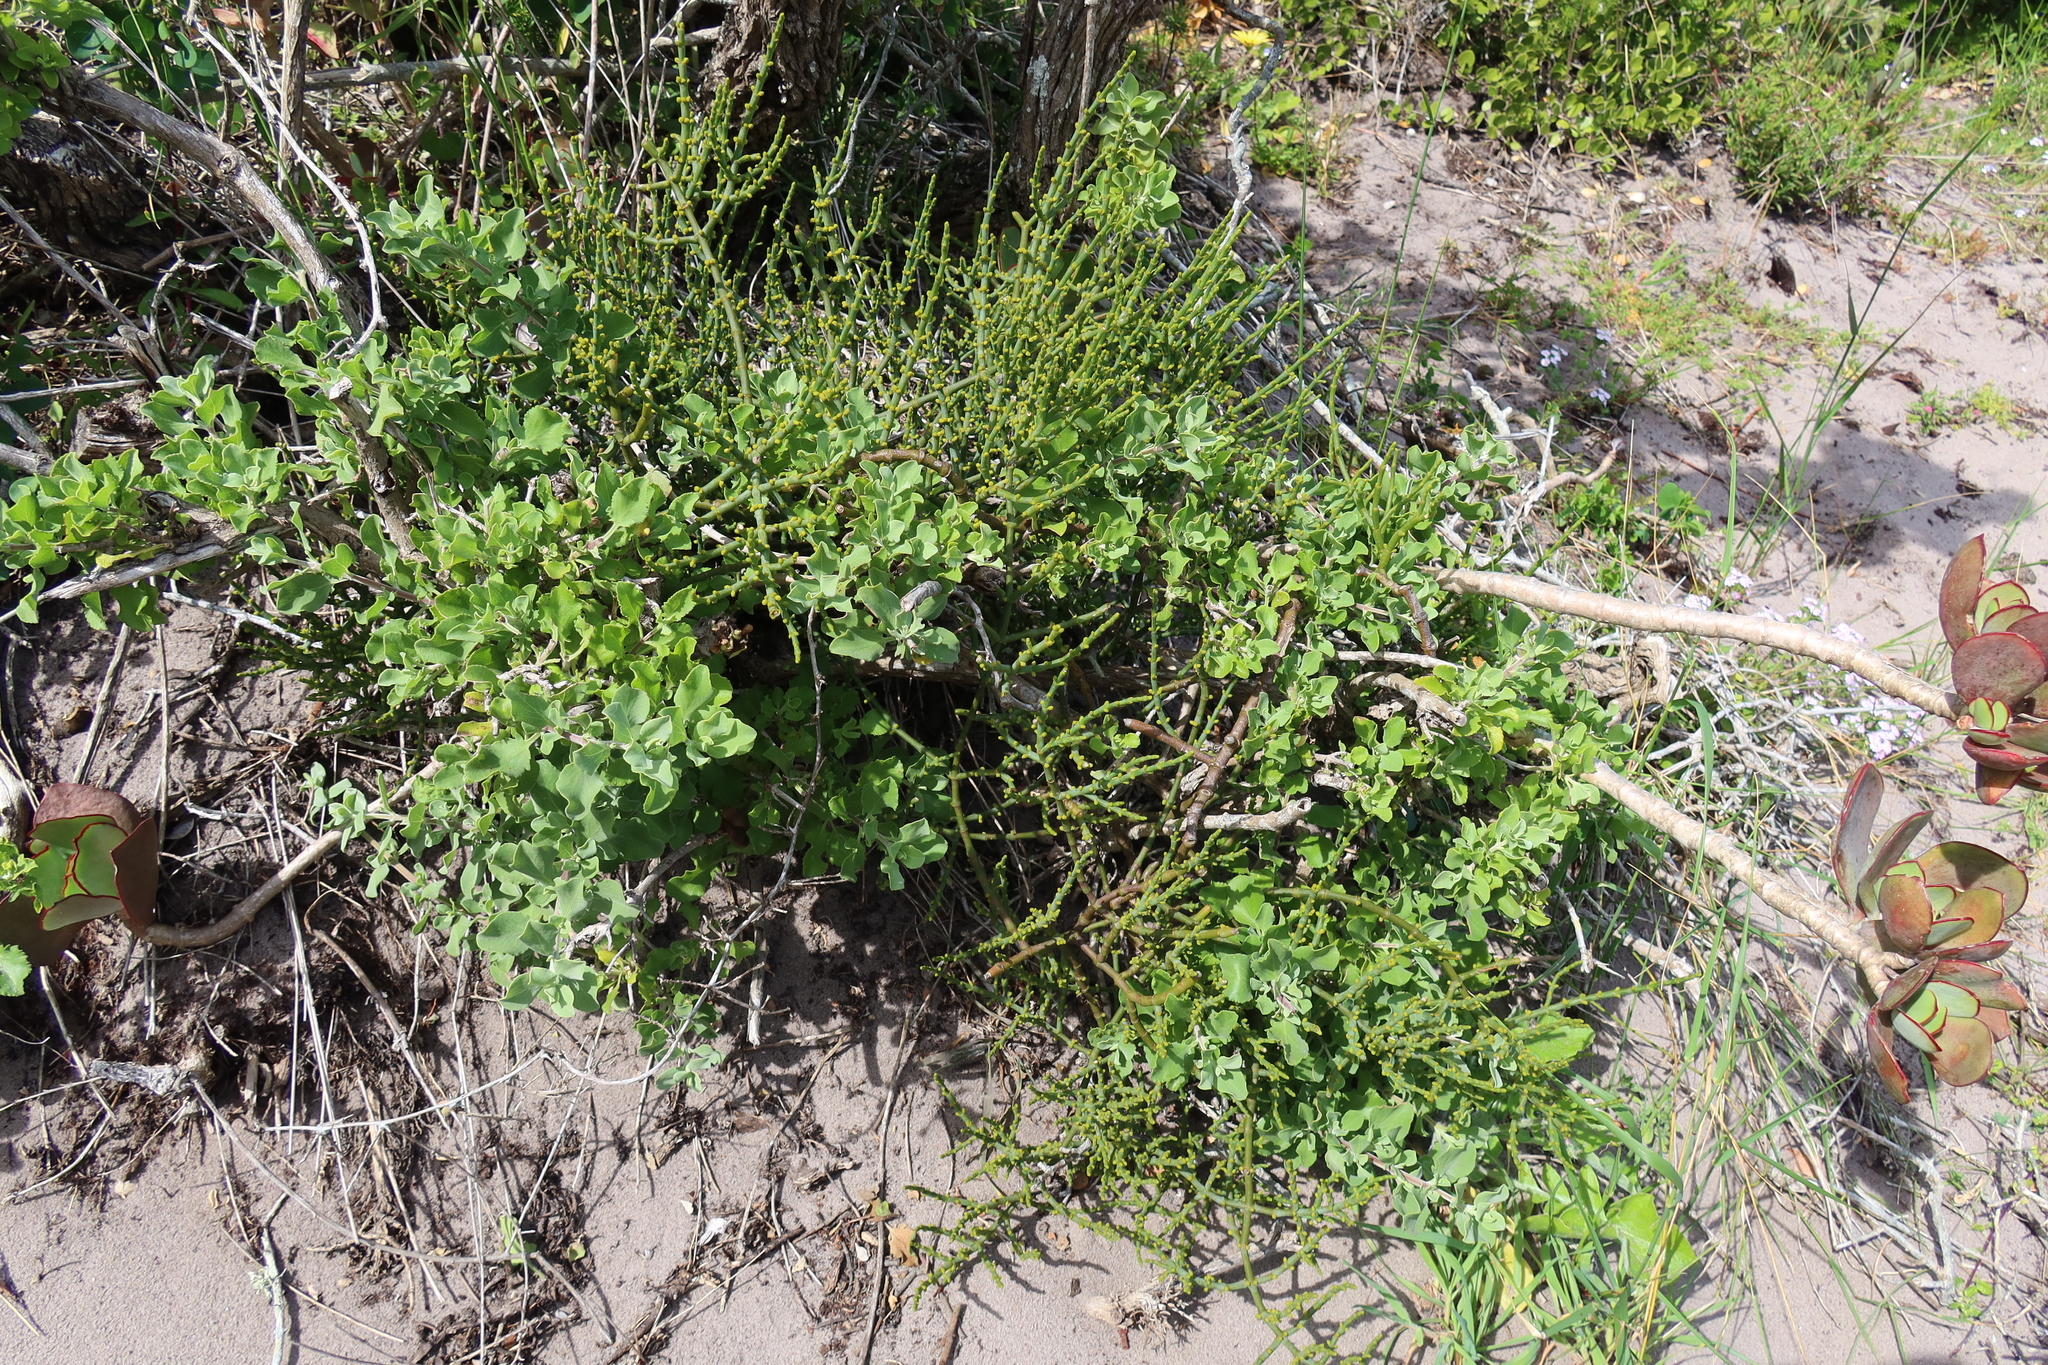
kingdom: Plantae
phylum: Tracheophyta
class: Magnoliopsida
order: Santalales
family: Viscaceae
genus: Viscum
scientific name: Viscum capense
